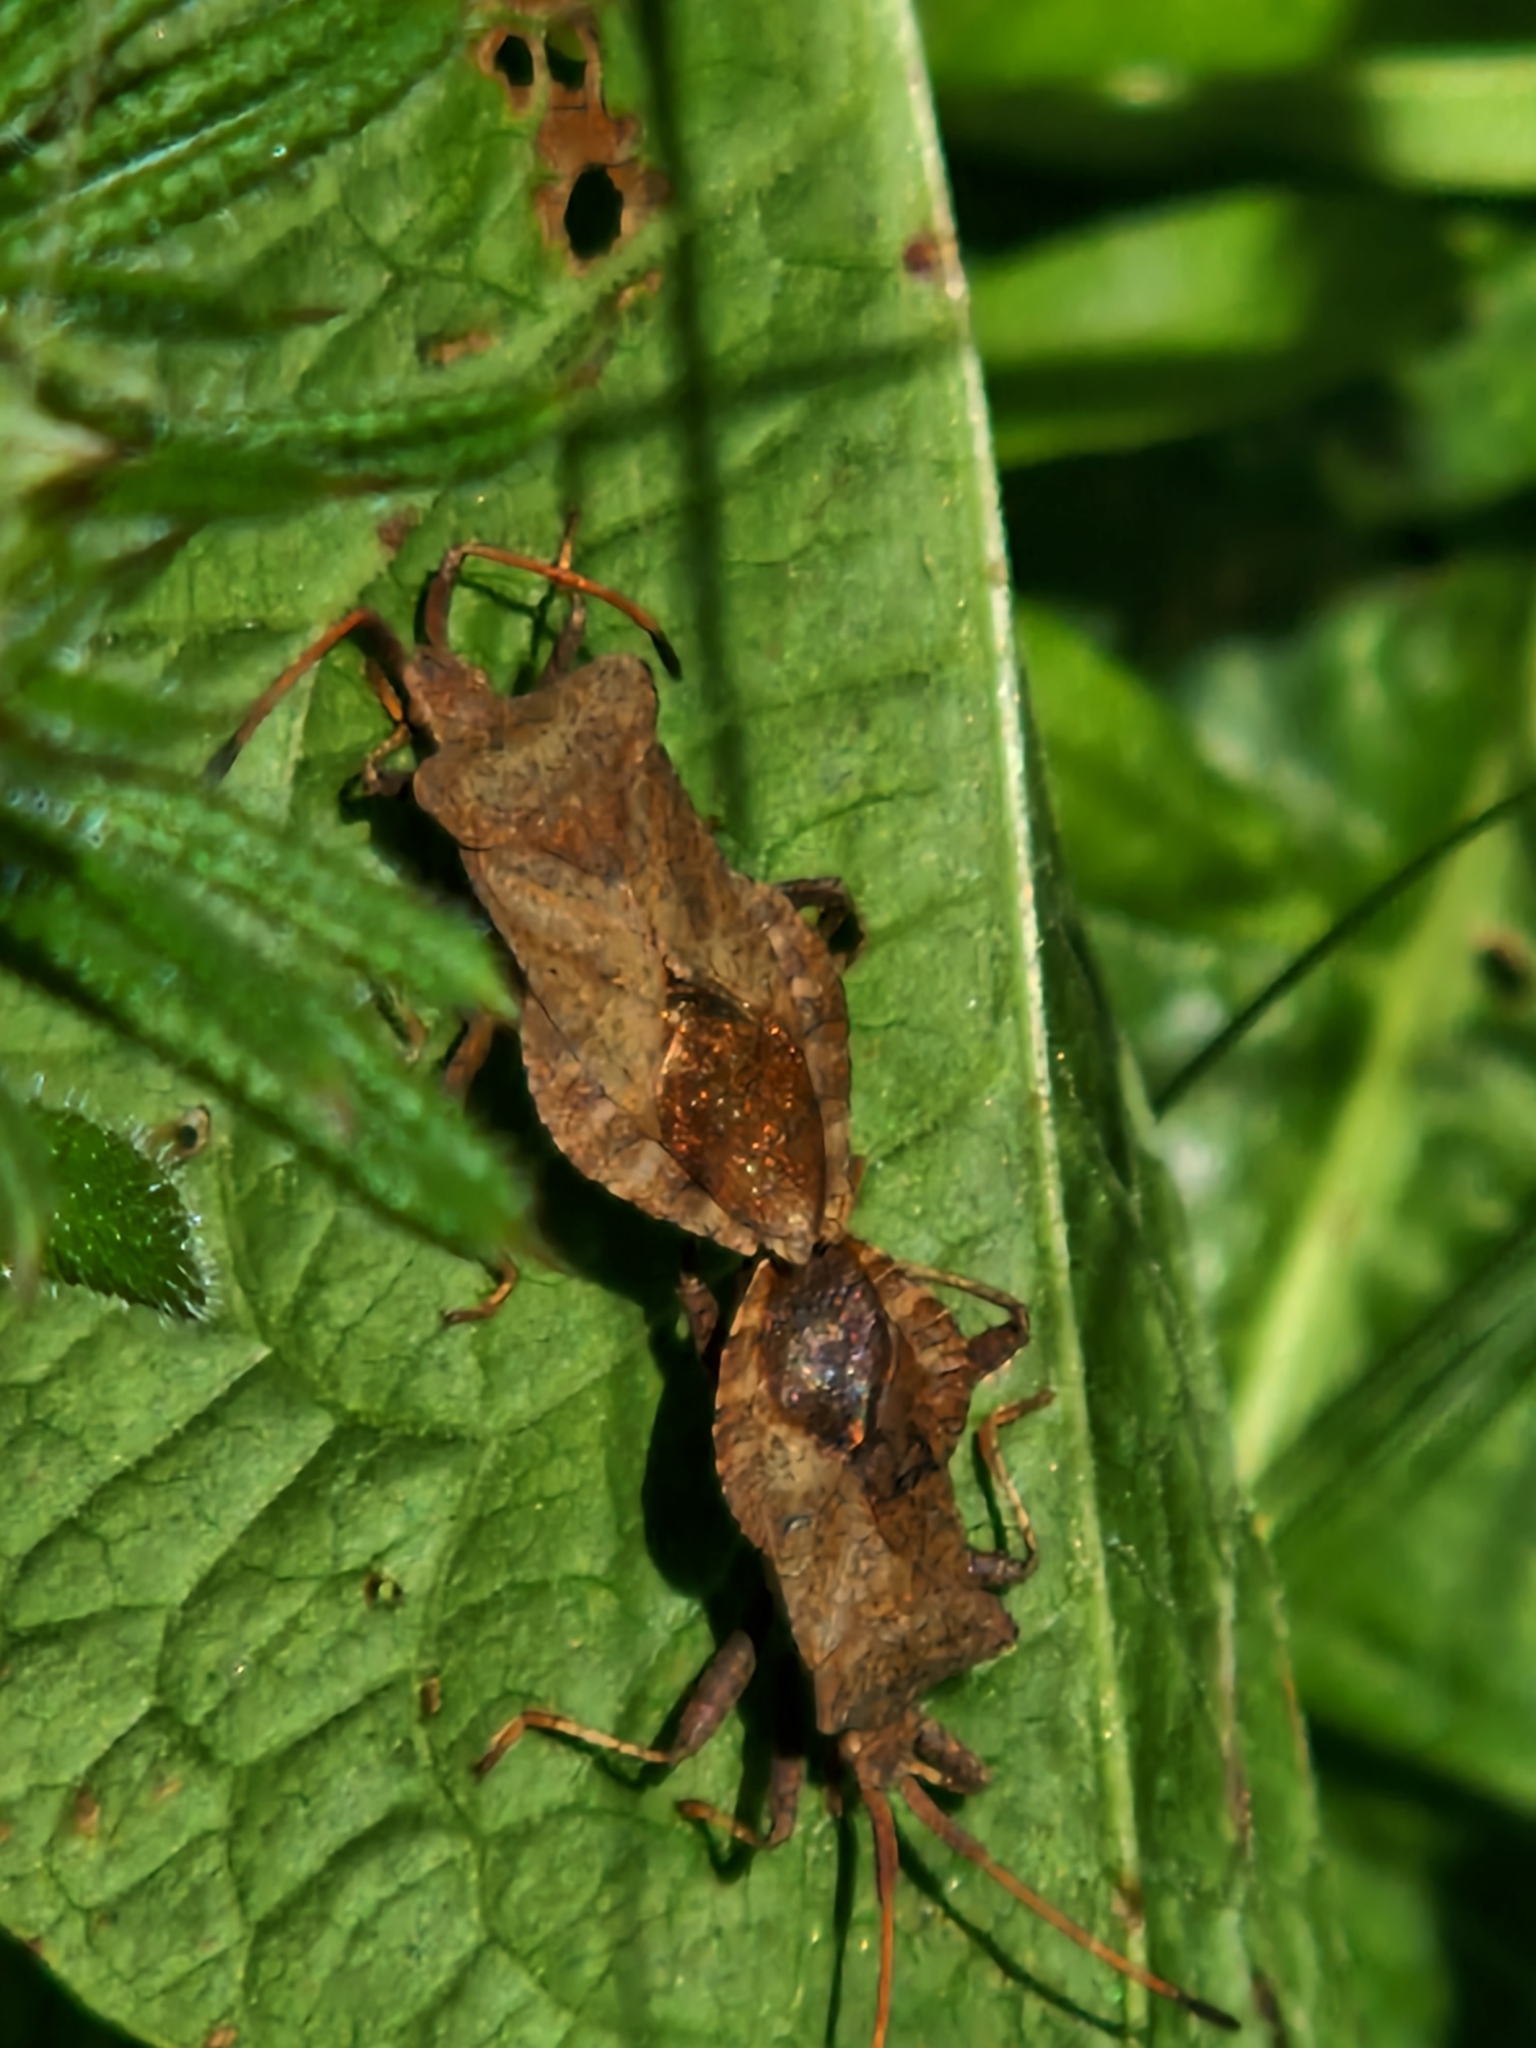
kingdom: Animalia
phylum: Arthropoda
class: Insecta
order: Hemiptera
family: Coreidae
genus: Coreus
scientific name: Coreus marginatus
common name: Dock bug
